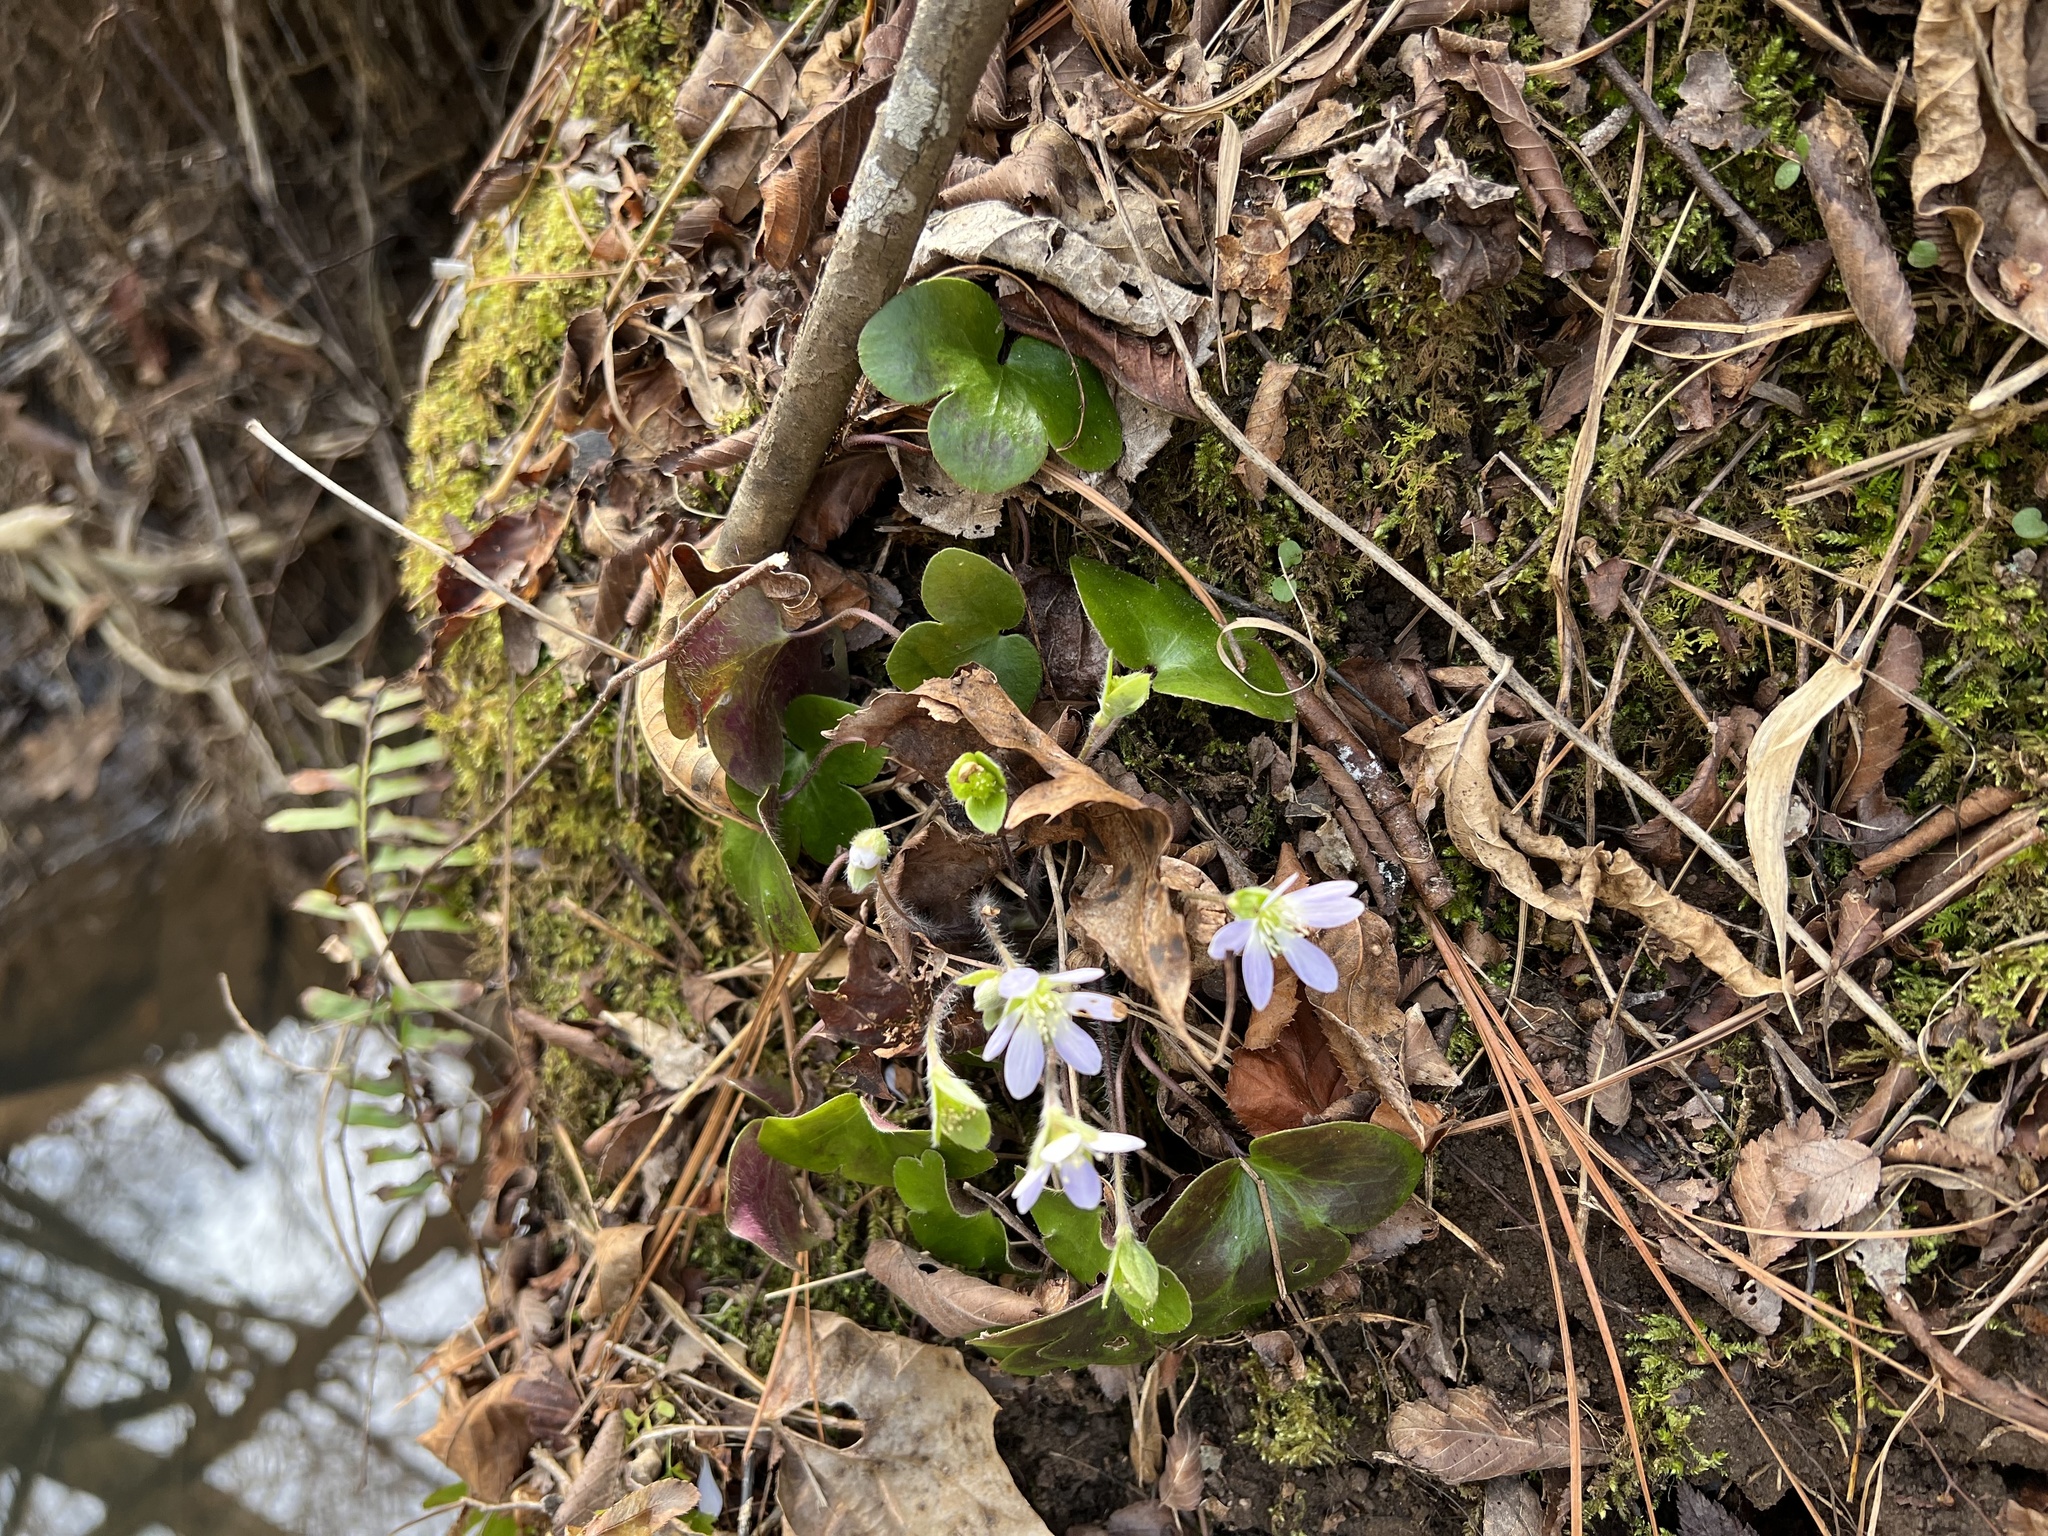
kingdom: Plantae
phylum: Tracheophyta
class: Magnoliopsida
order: Ranunculales
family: Ranunculaceae
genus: Hepatica
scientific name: Hepatica americana
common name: American hepatica
